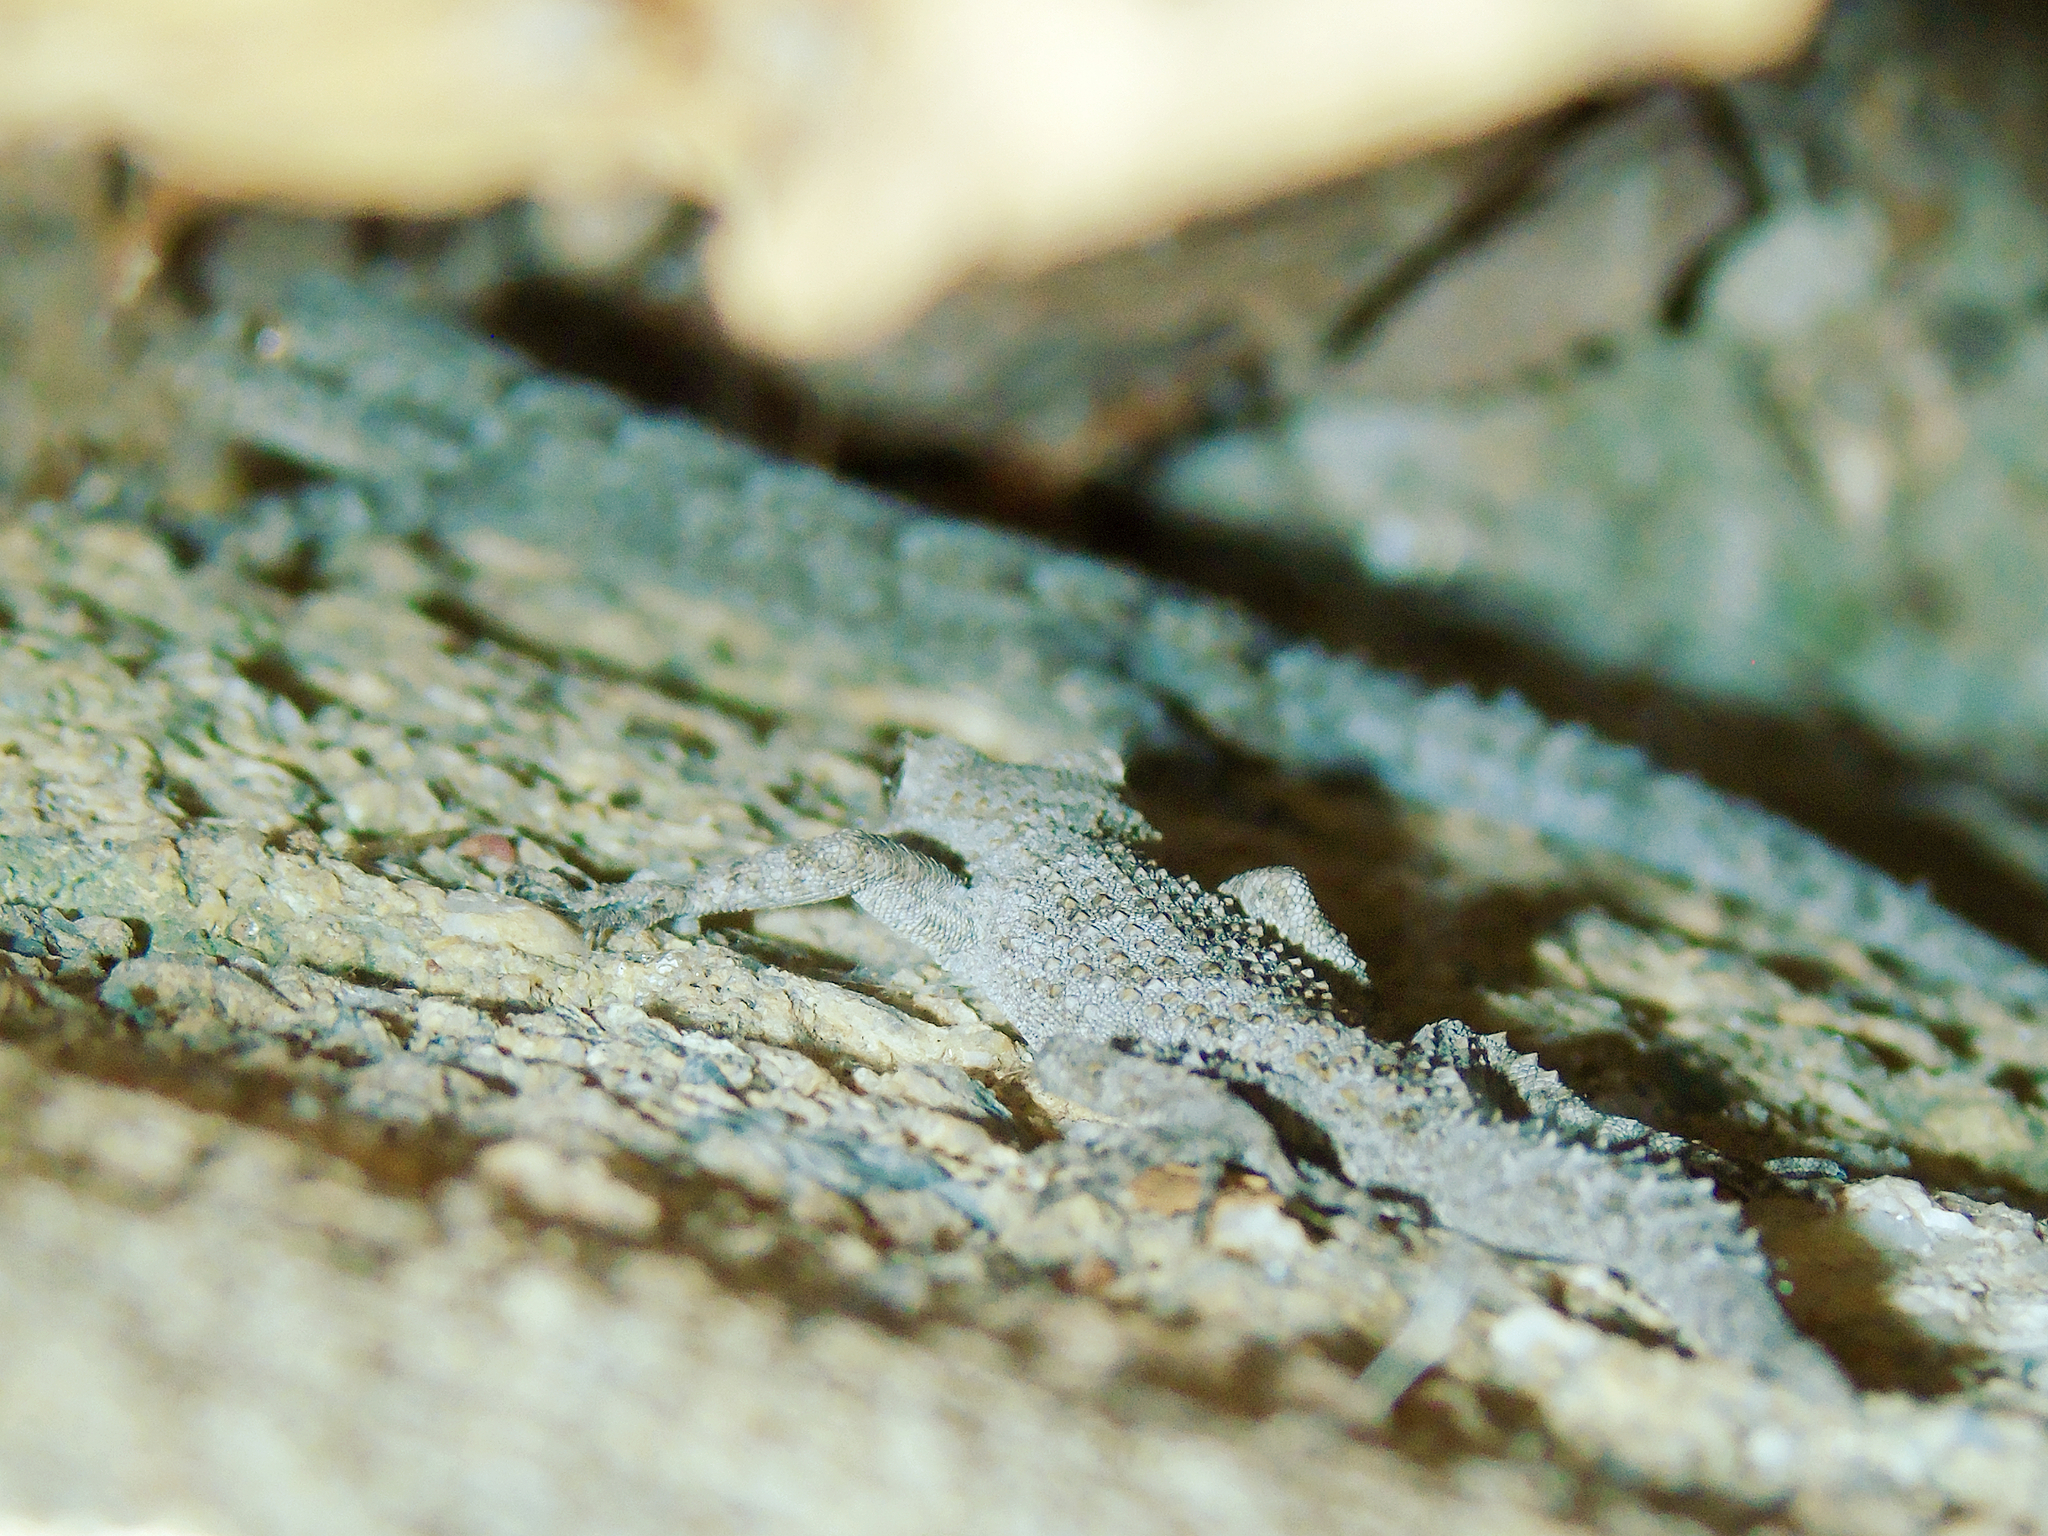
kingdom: Animalia
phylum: Chordata
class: Squamata
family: Gekkonidae
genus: Mediodactylus
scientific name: Mediodactylus kotschyi
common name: Kotschy's gecko
